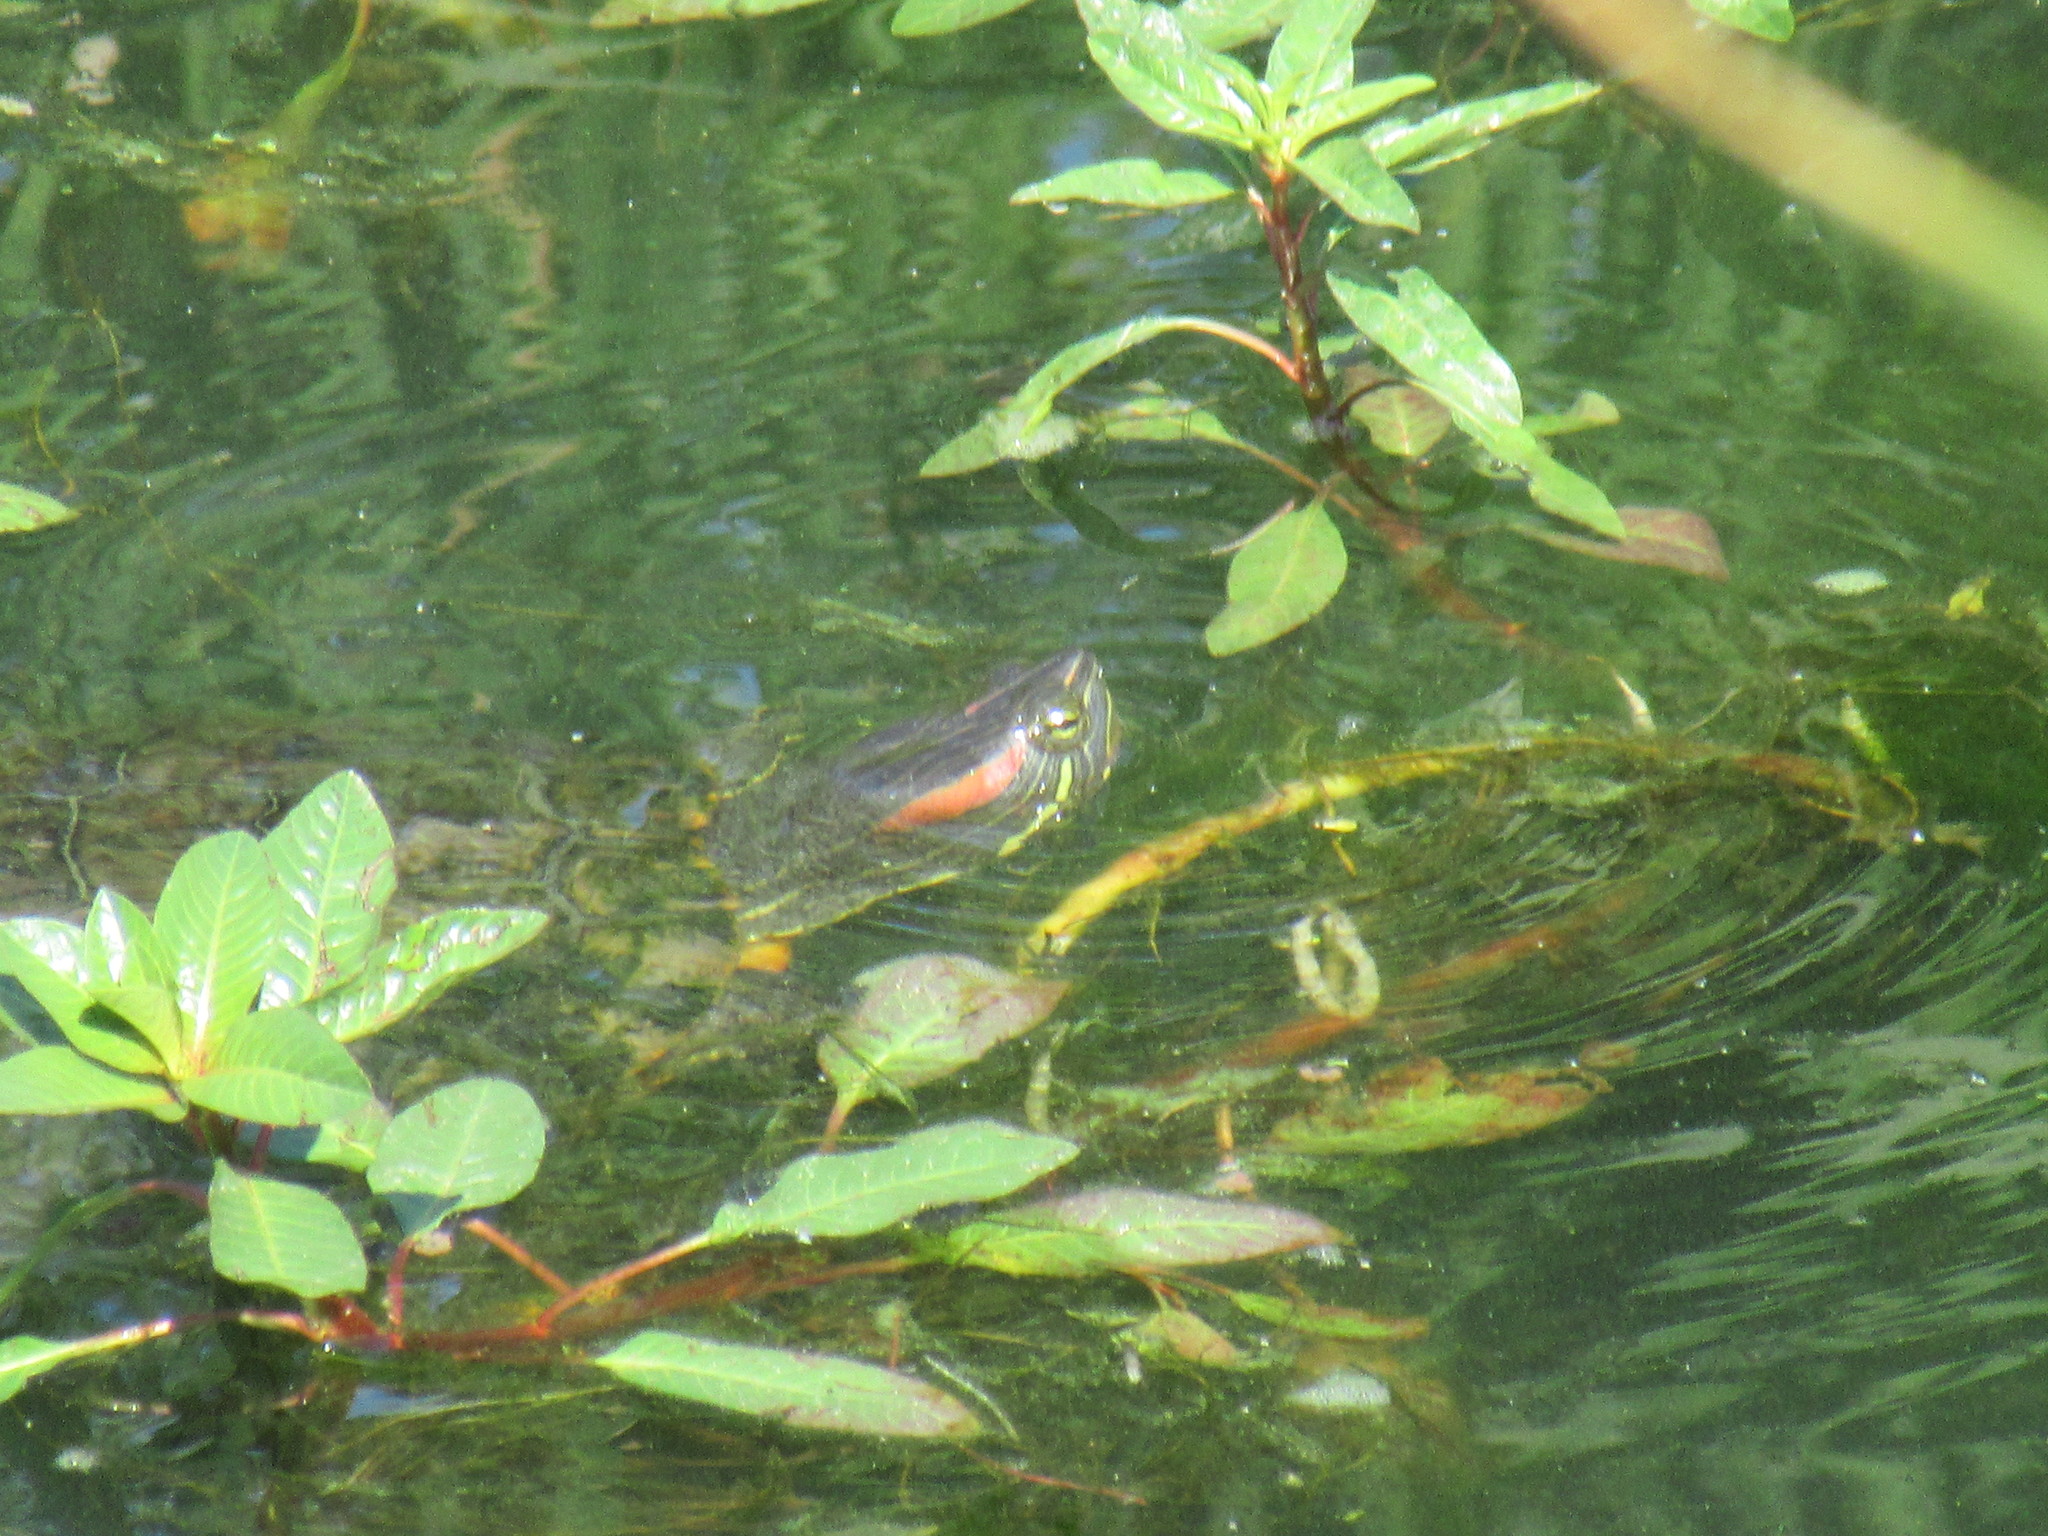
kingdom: Animalia
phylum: Chordata
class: Testudines
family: Emydidae
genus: Trachemys
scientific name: Trachemys scripta
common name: Slider
